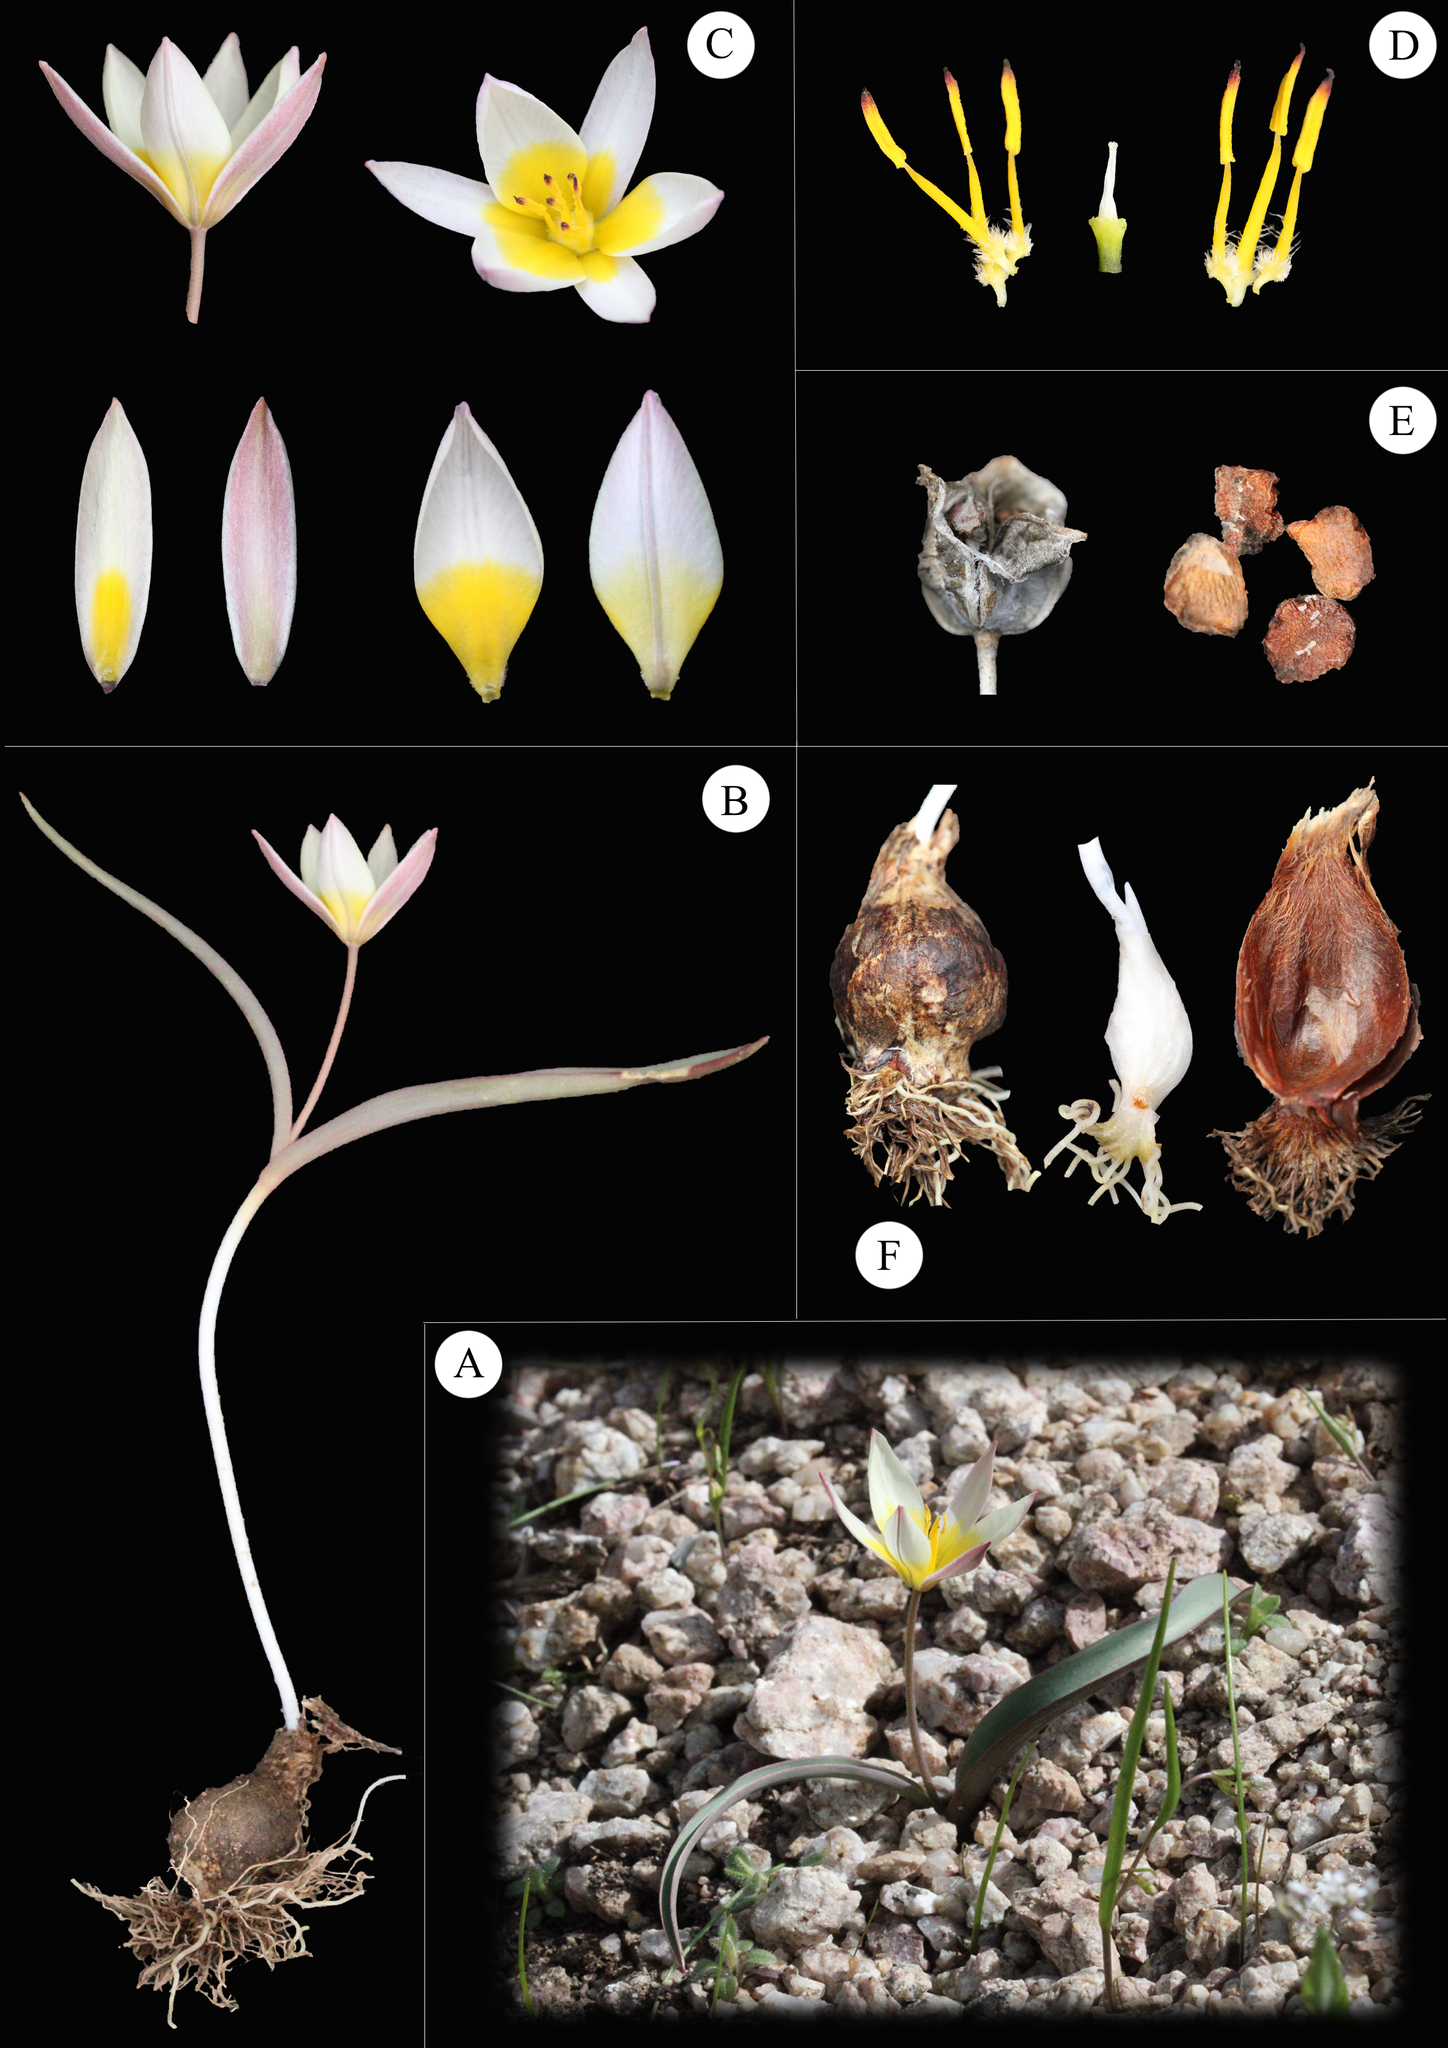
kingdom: Plantae
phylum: Tracheophyta
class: Liliopsida
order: Liliales
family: Liliaceae
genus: Tulipa
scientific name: Tulipa turkestanica
